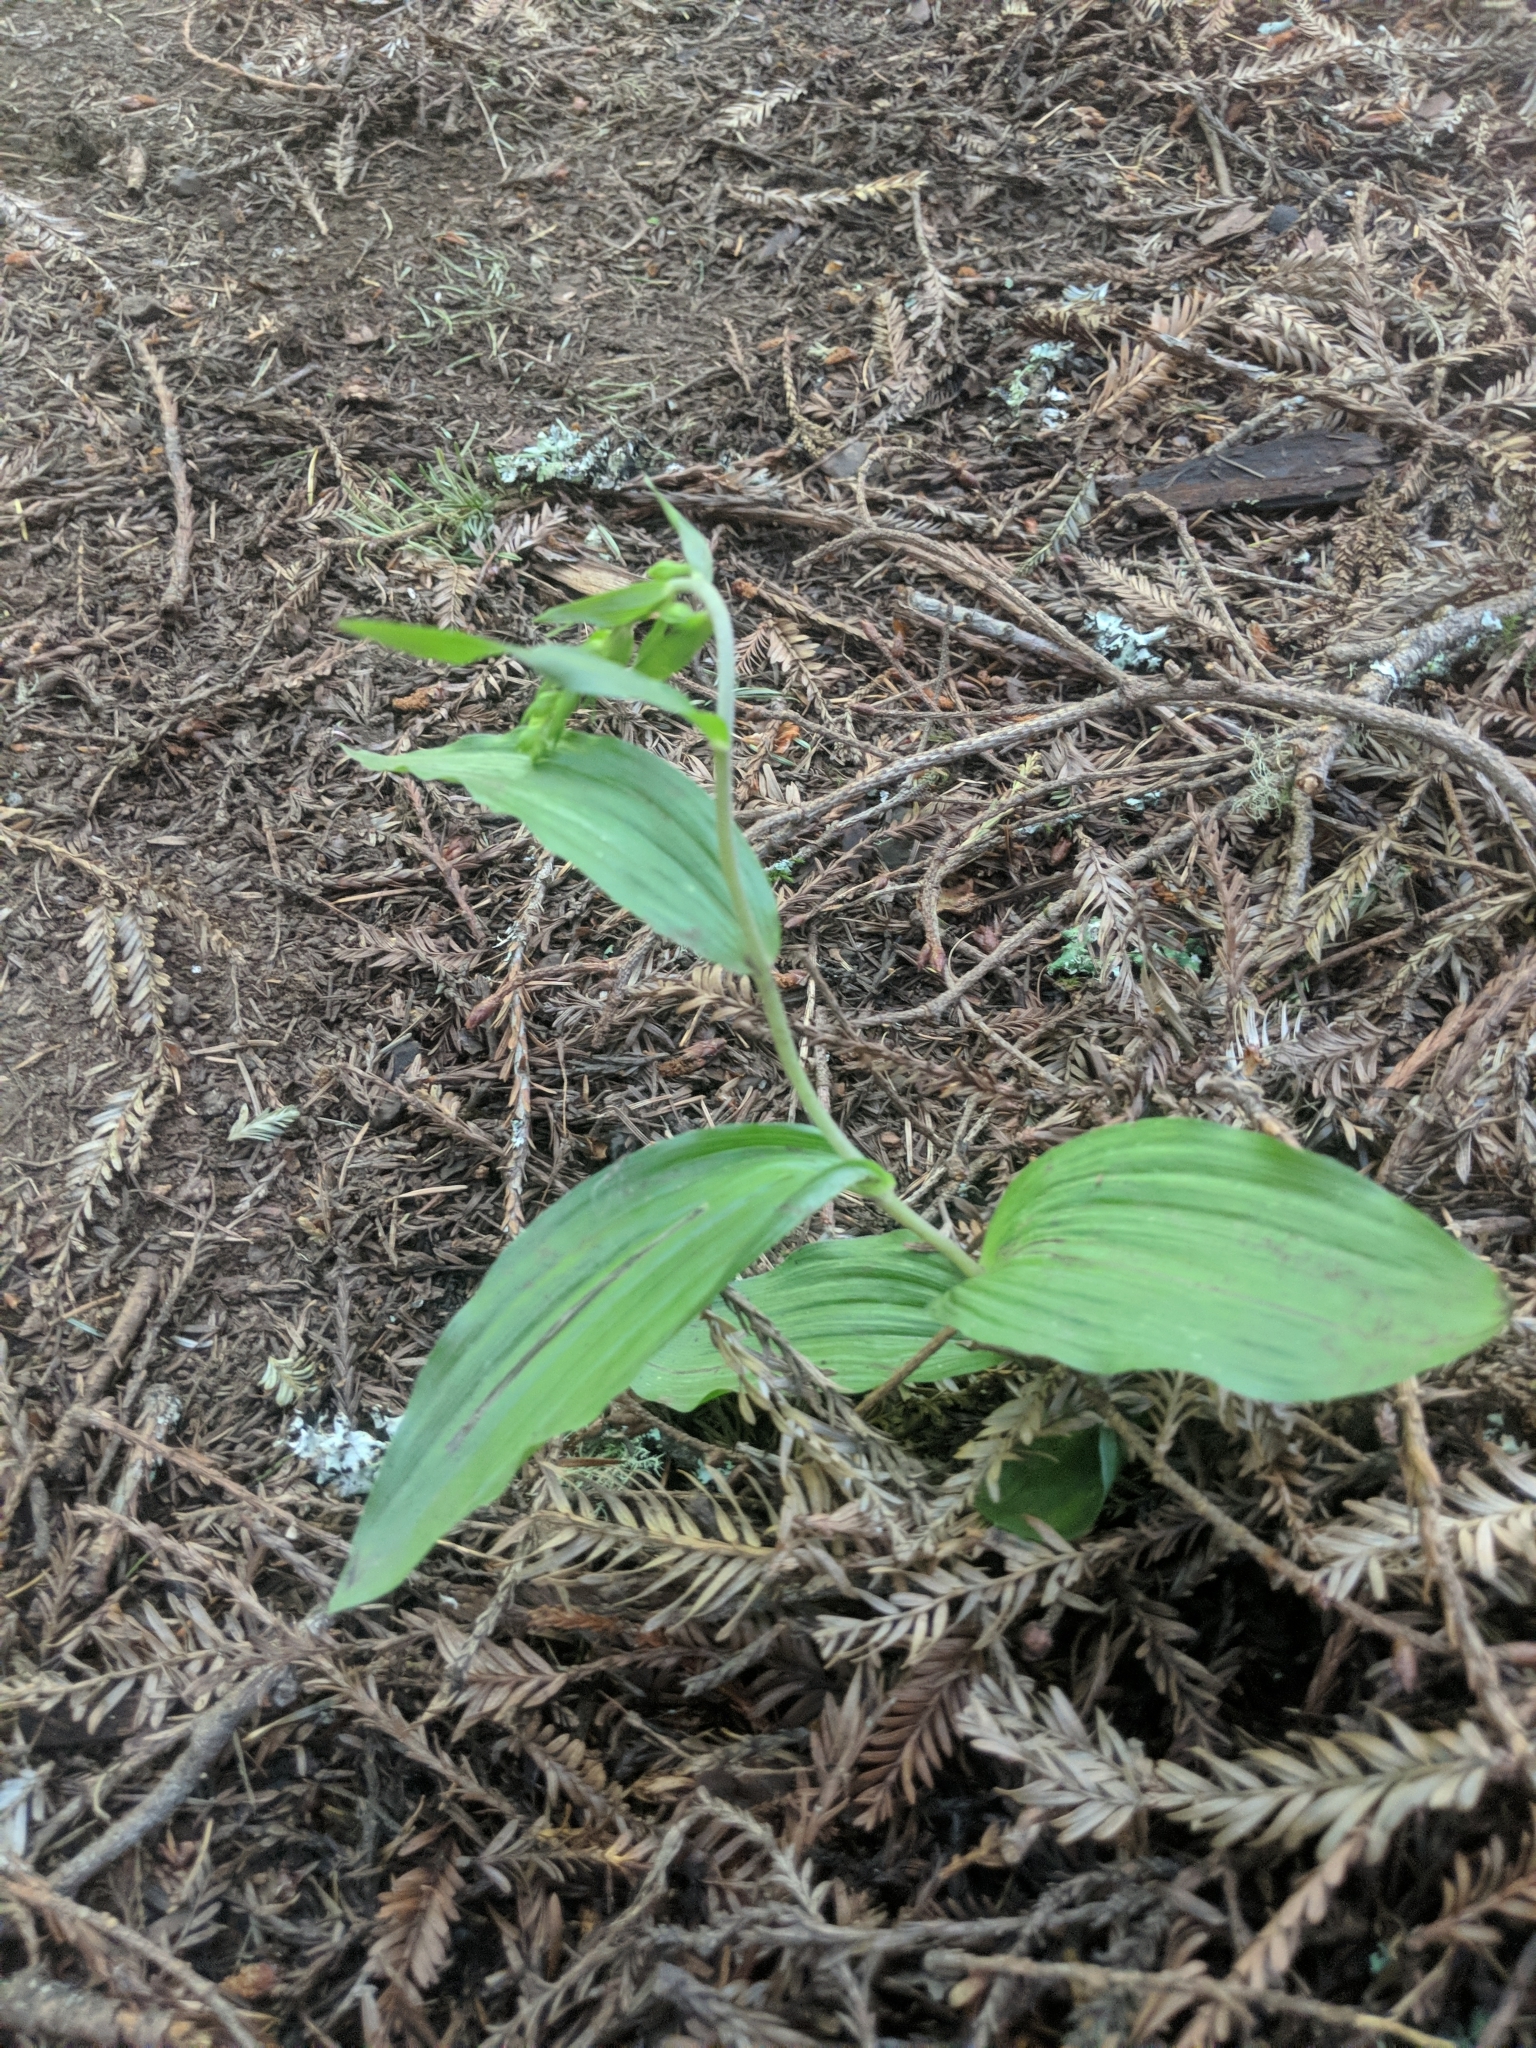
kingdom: Plantae
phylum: Tracheophyta
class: Liliopsida
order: Asparagales
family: Orchidaceae
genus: Epipactis
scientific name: Epipactis helleborine
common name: Broad-leaved helleborine
